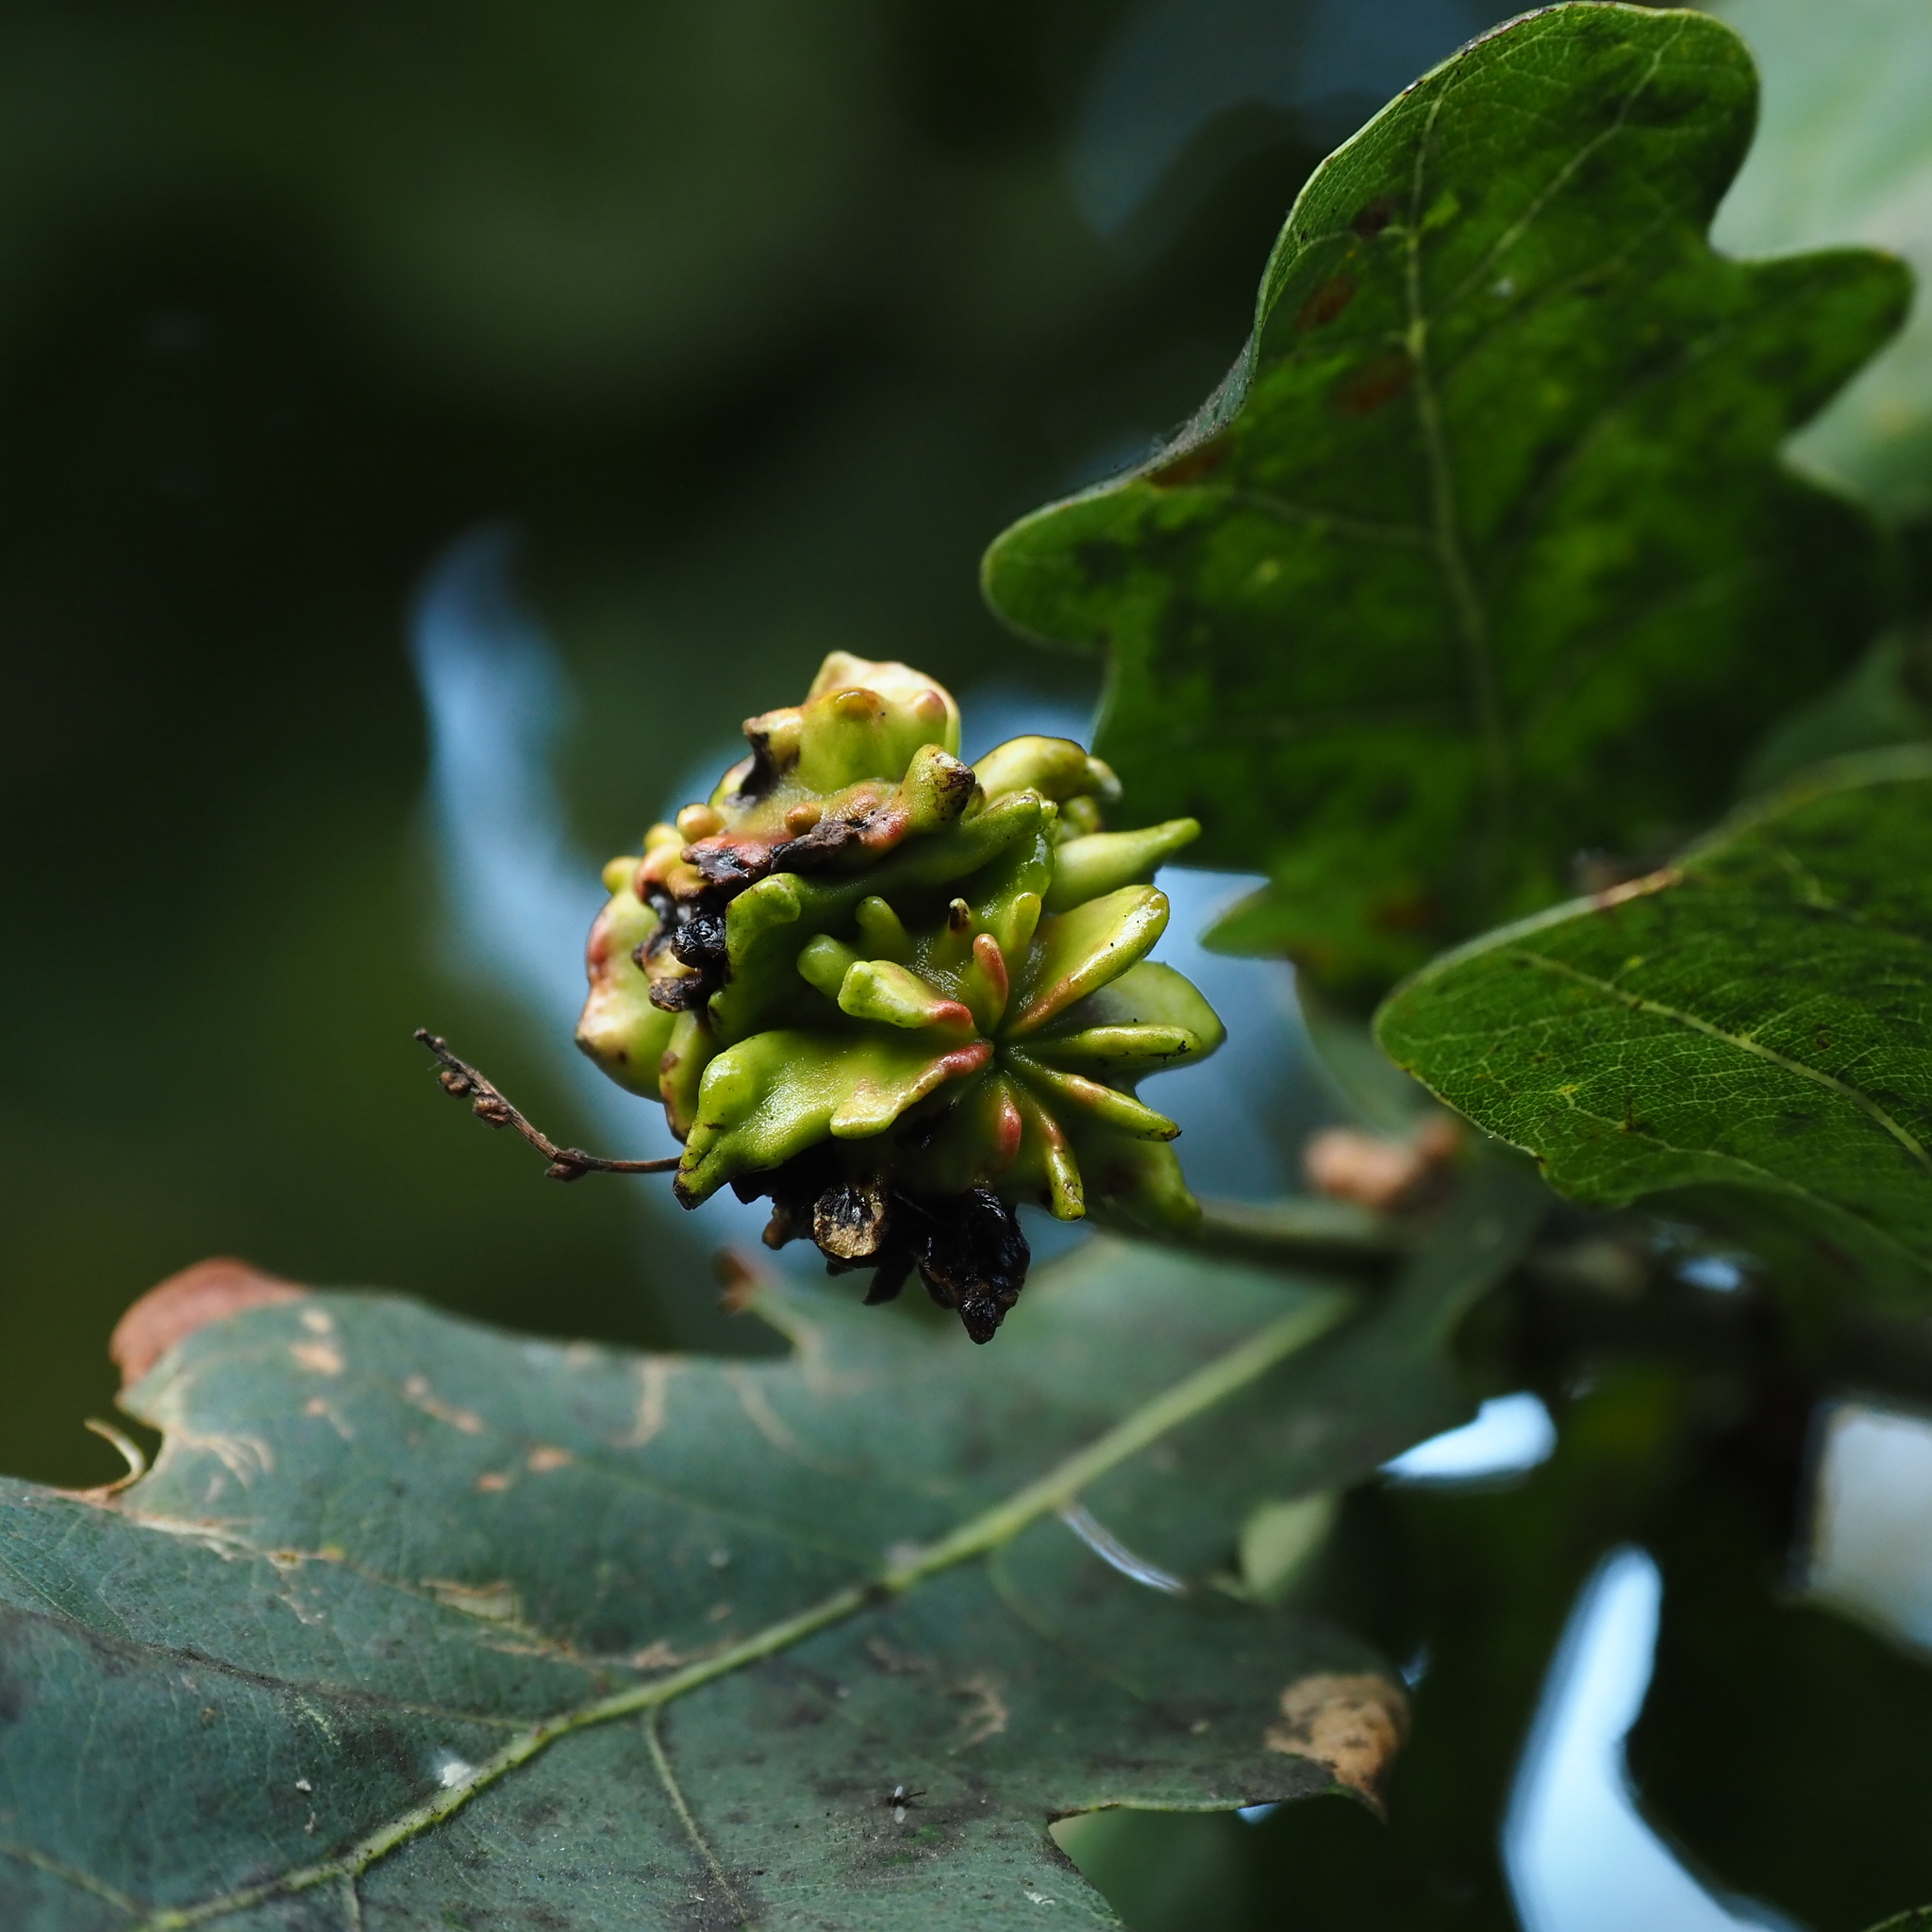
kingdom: Animalia
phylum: Arthropoda
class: Insecta
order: Hymenoptera
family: Cynipidae
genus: Andricus
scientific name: Andricus quercuscalicis
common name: Knopper gall
